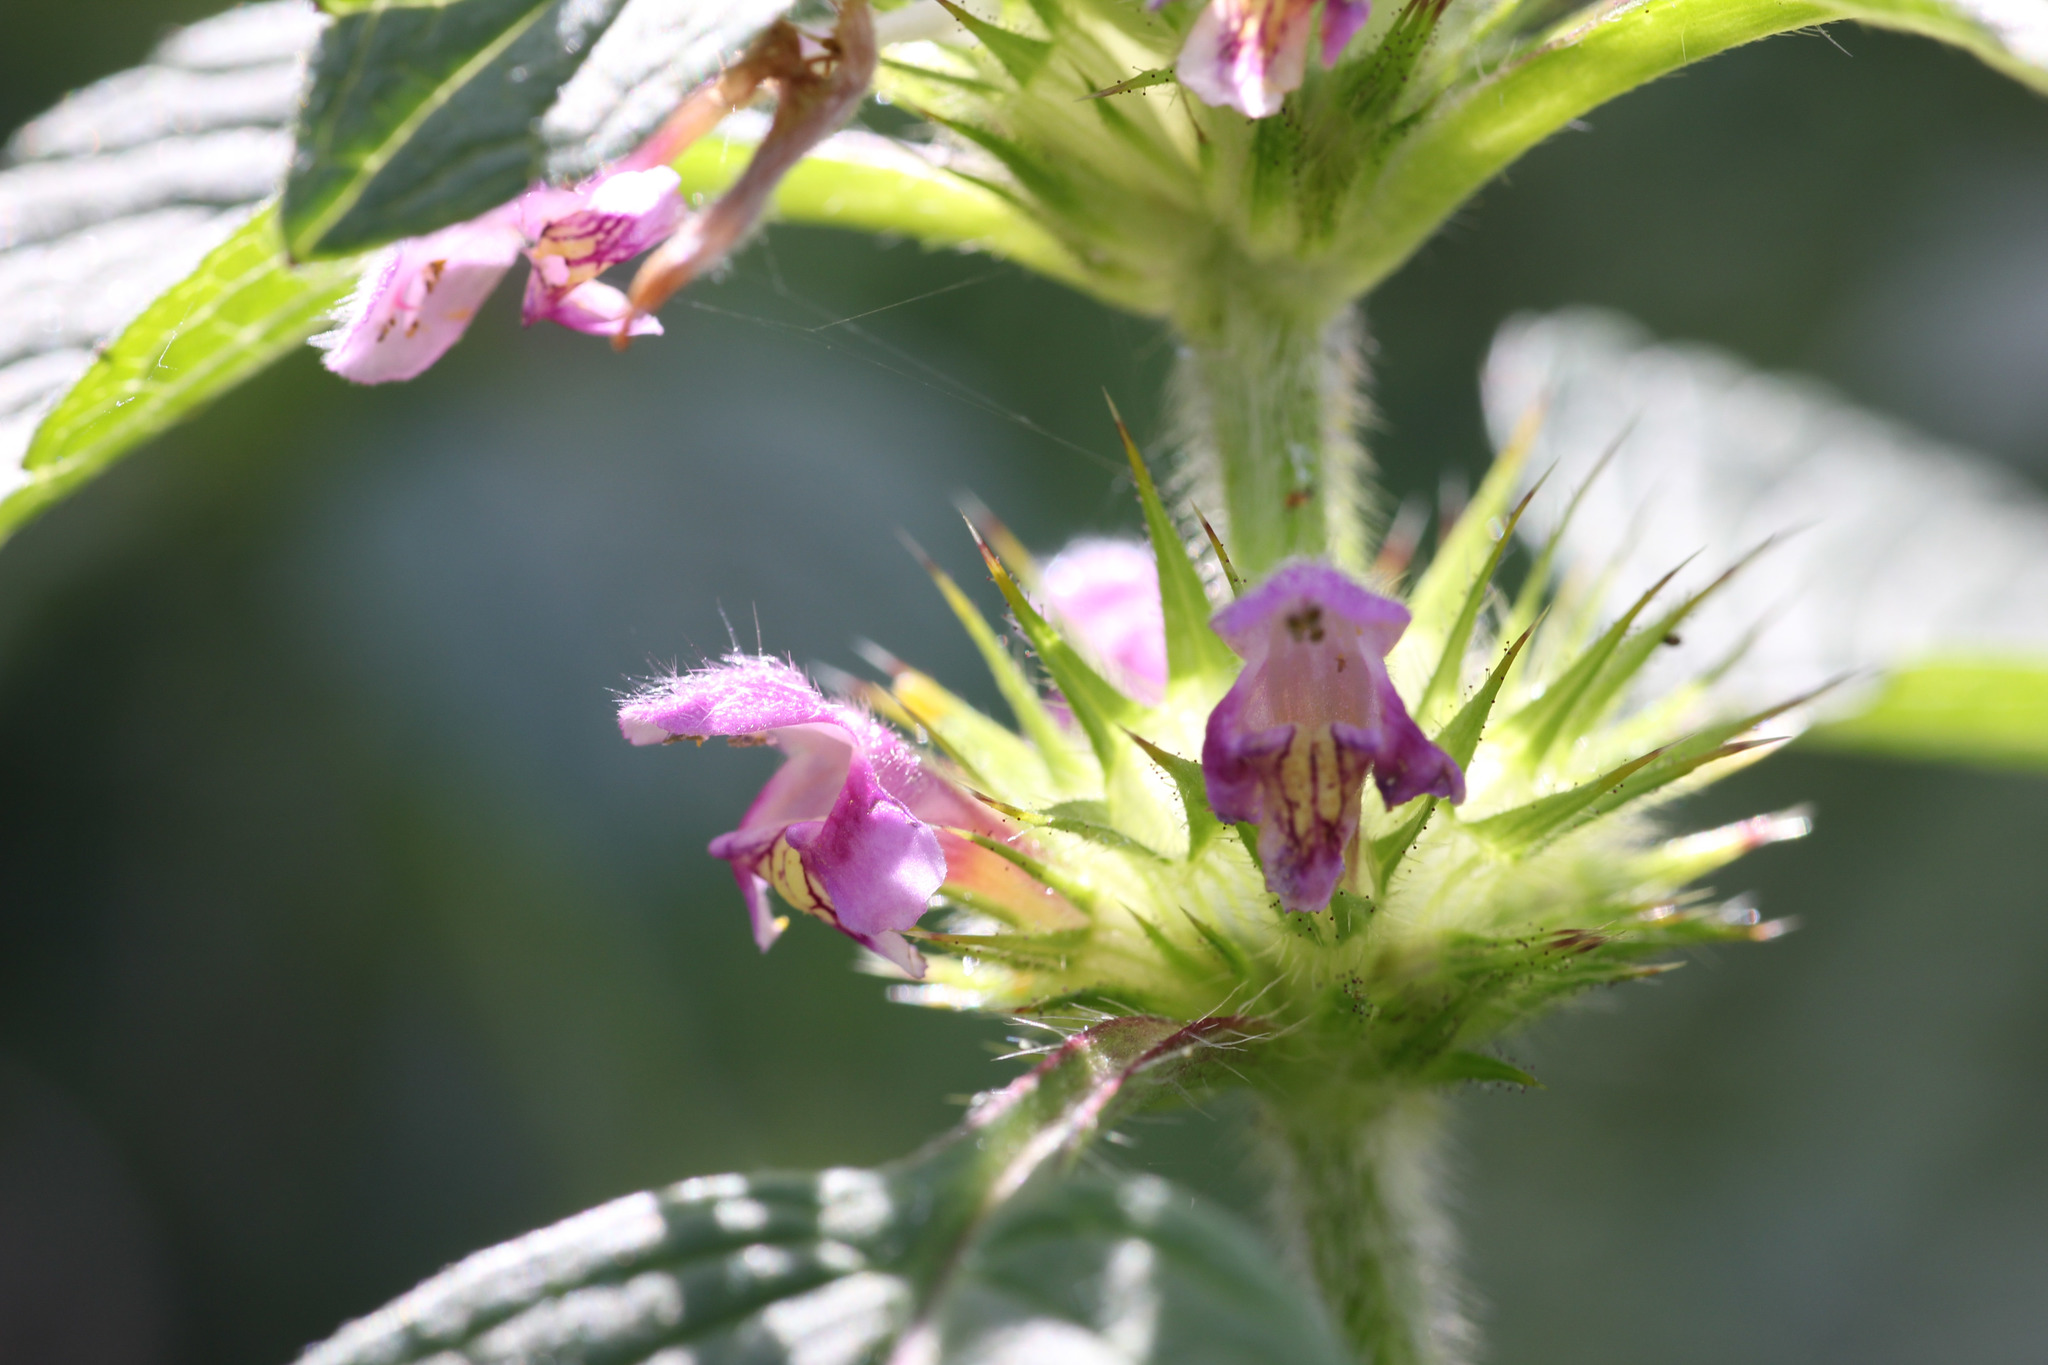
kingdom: Plantae
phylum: Tracheophyta
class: Magnoliopsida
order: Lamiales
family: Lamiaceae
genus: Galeopsis
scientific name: Galeopsis tetrahit
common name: Common hemp-nettle
